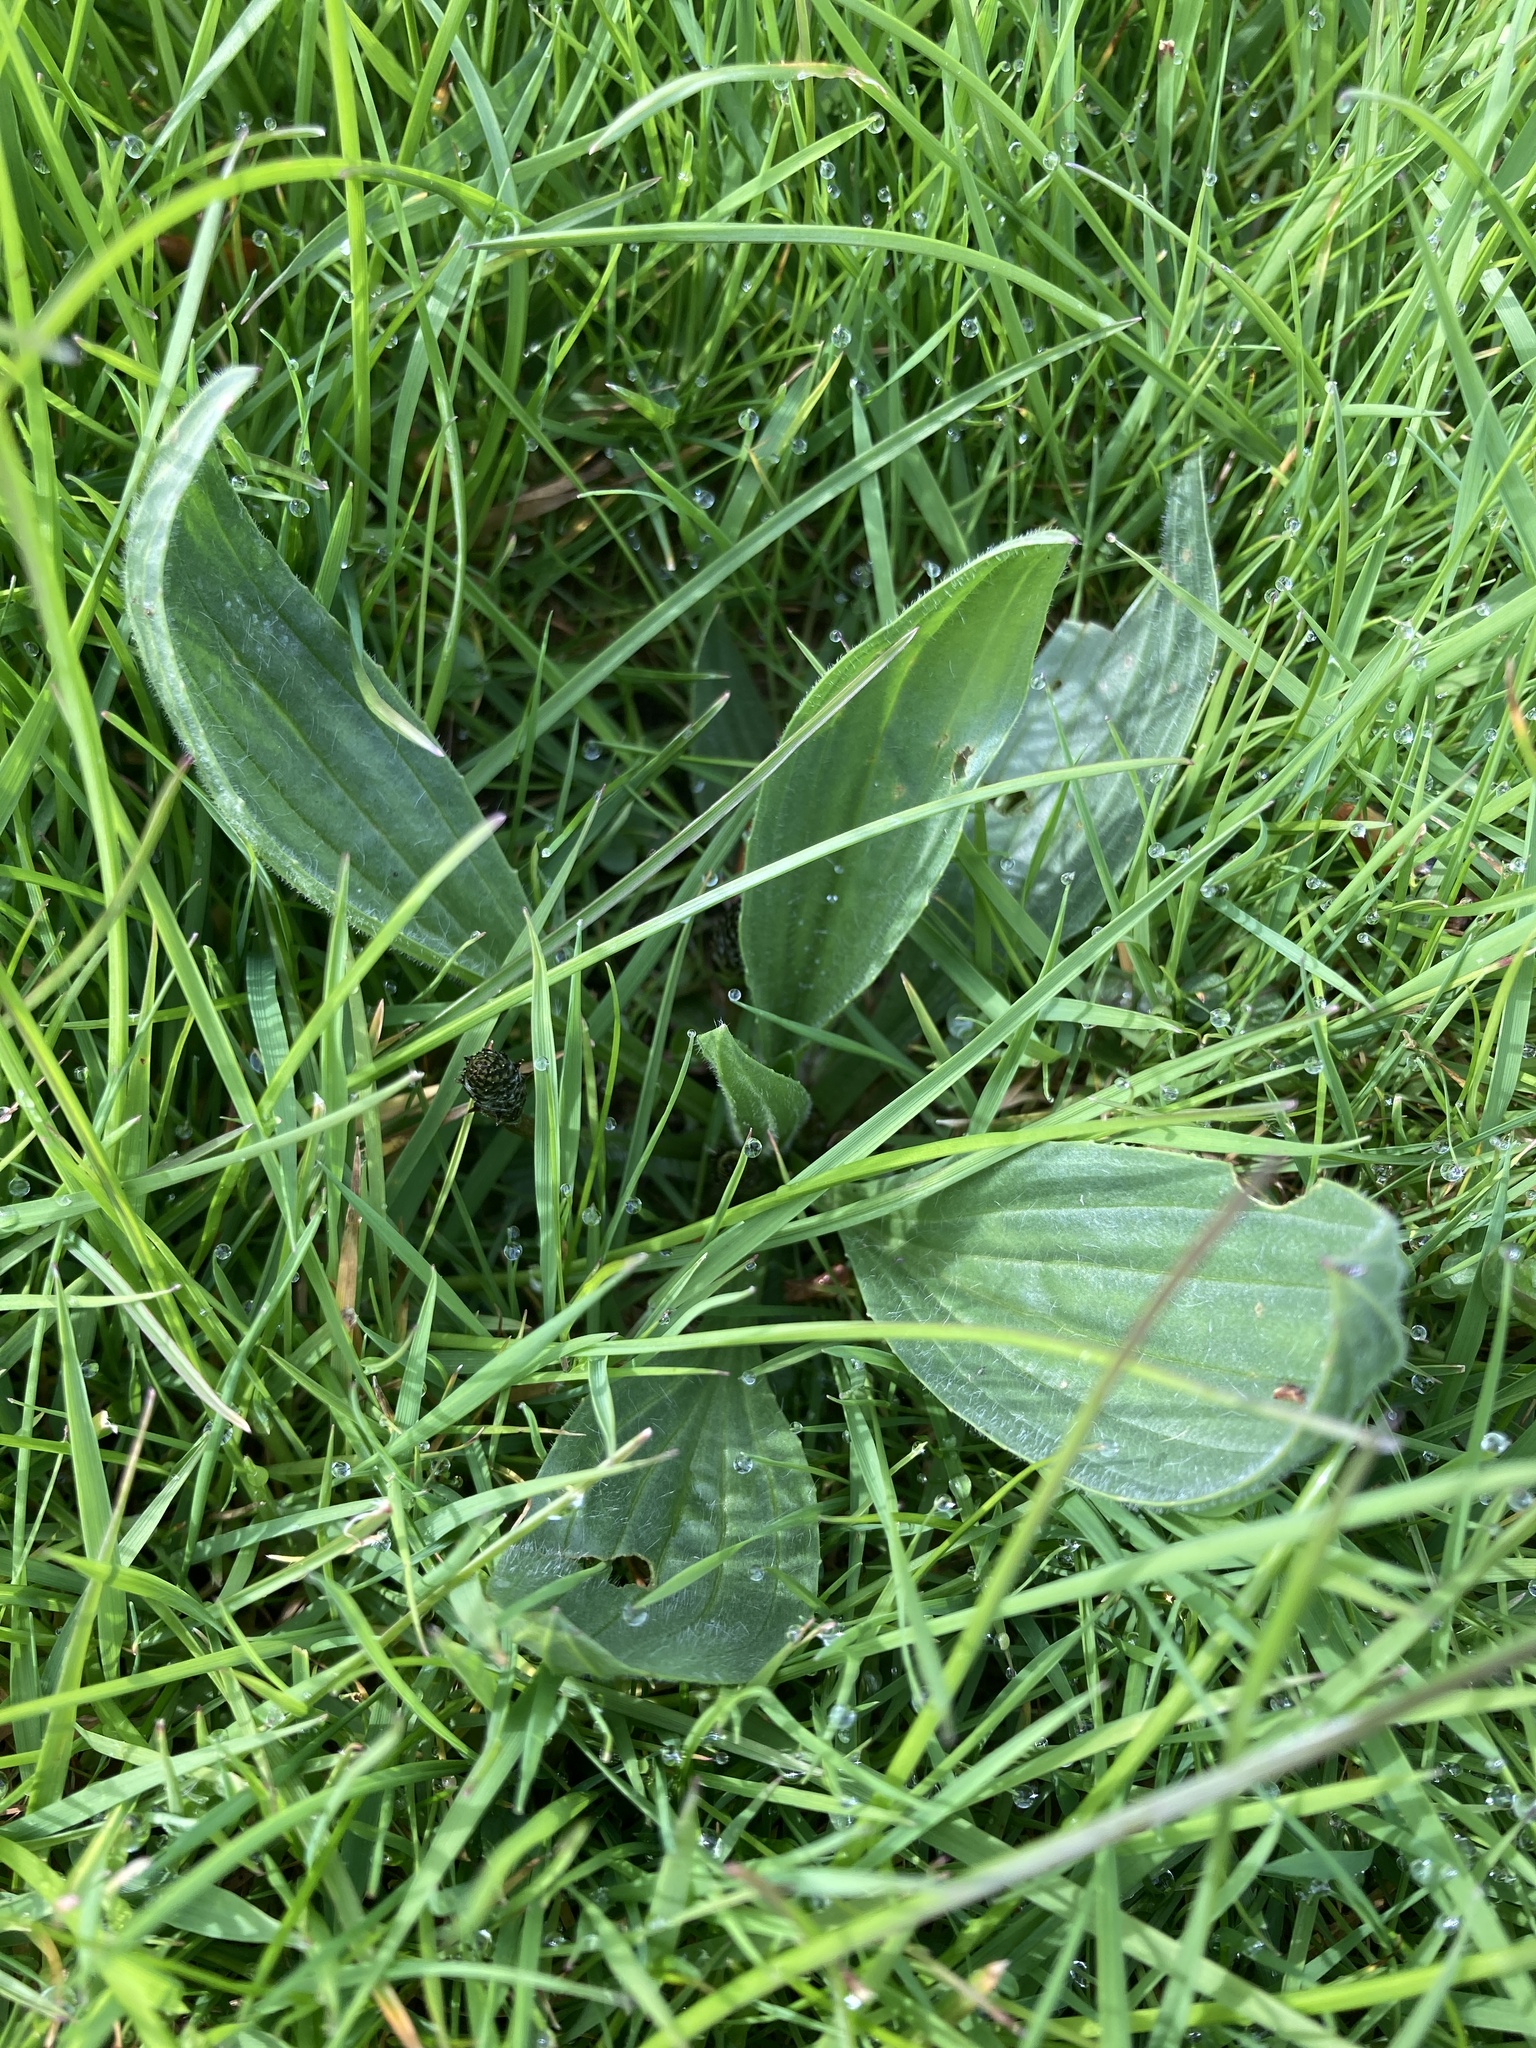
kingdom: Plantae
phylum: Tracheophyta
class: Magnoliopsida
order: Lamiales
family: Plantaginaceae
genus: Plantago
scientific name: Plantago lanceolata
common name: Ribwort plantain
